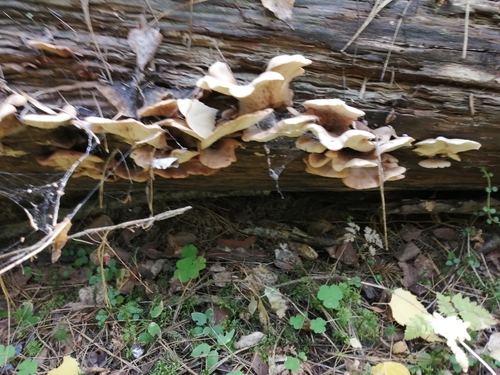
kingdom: Fungi
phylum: Basidiomycota
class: Agaricomycetes
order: Russulales
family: Auriscalpiaceae
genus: Lentinellus
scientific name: Lentinellus
